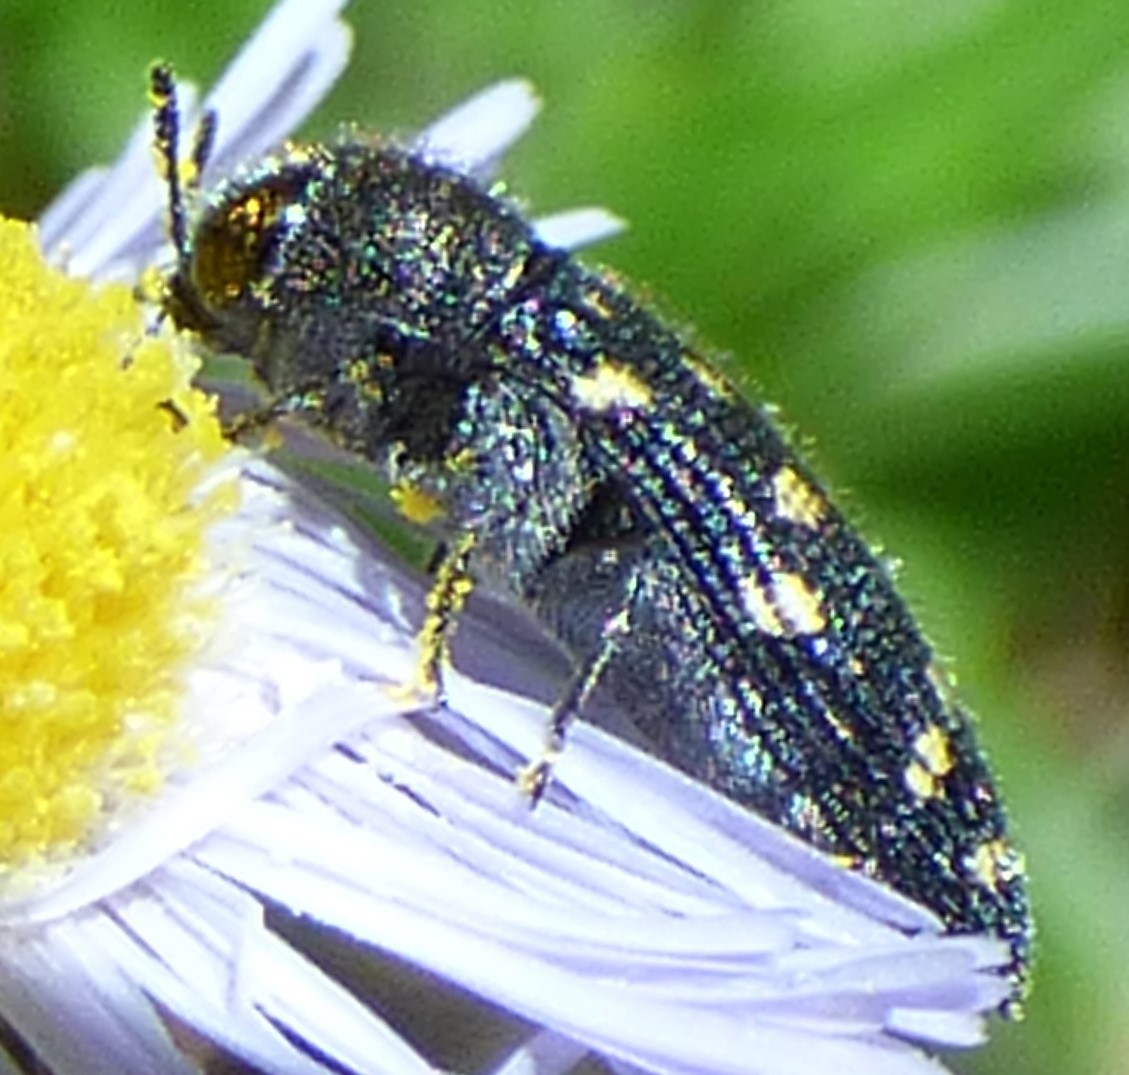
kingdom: Animalia
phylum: Arthropoda
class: Insecta
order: Coleoptera
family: Buprestidae
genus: Acmaeodera
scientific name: Acmaeodera tubulus
